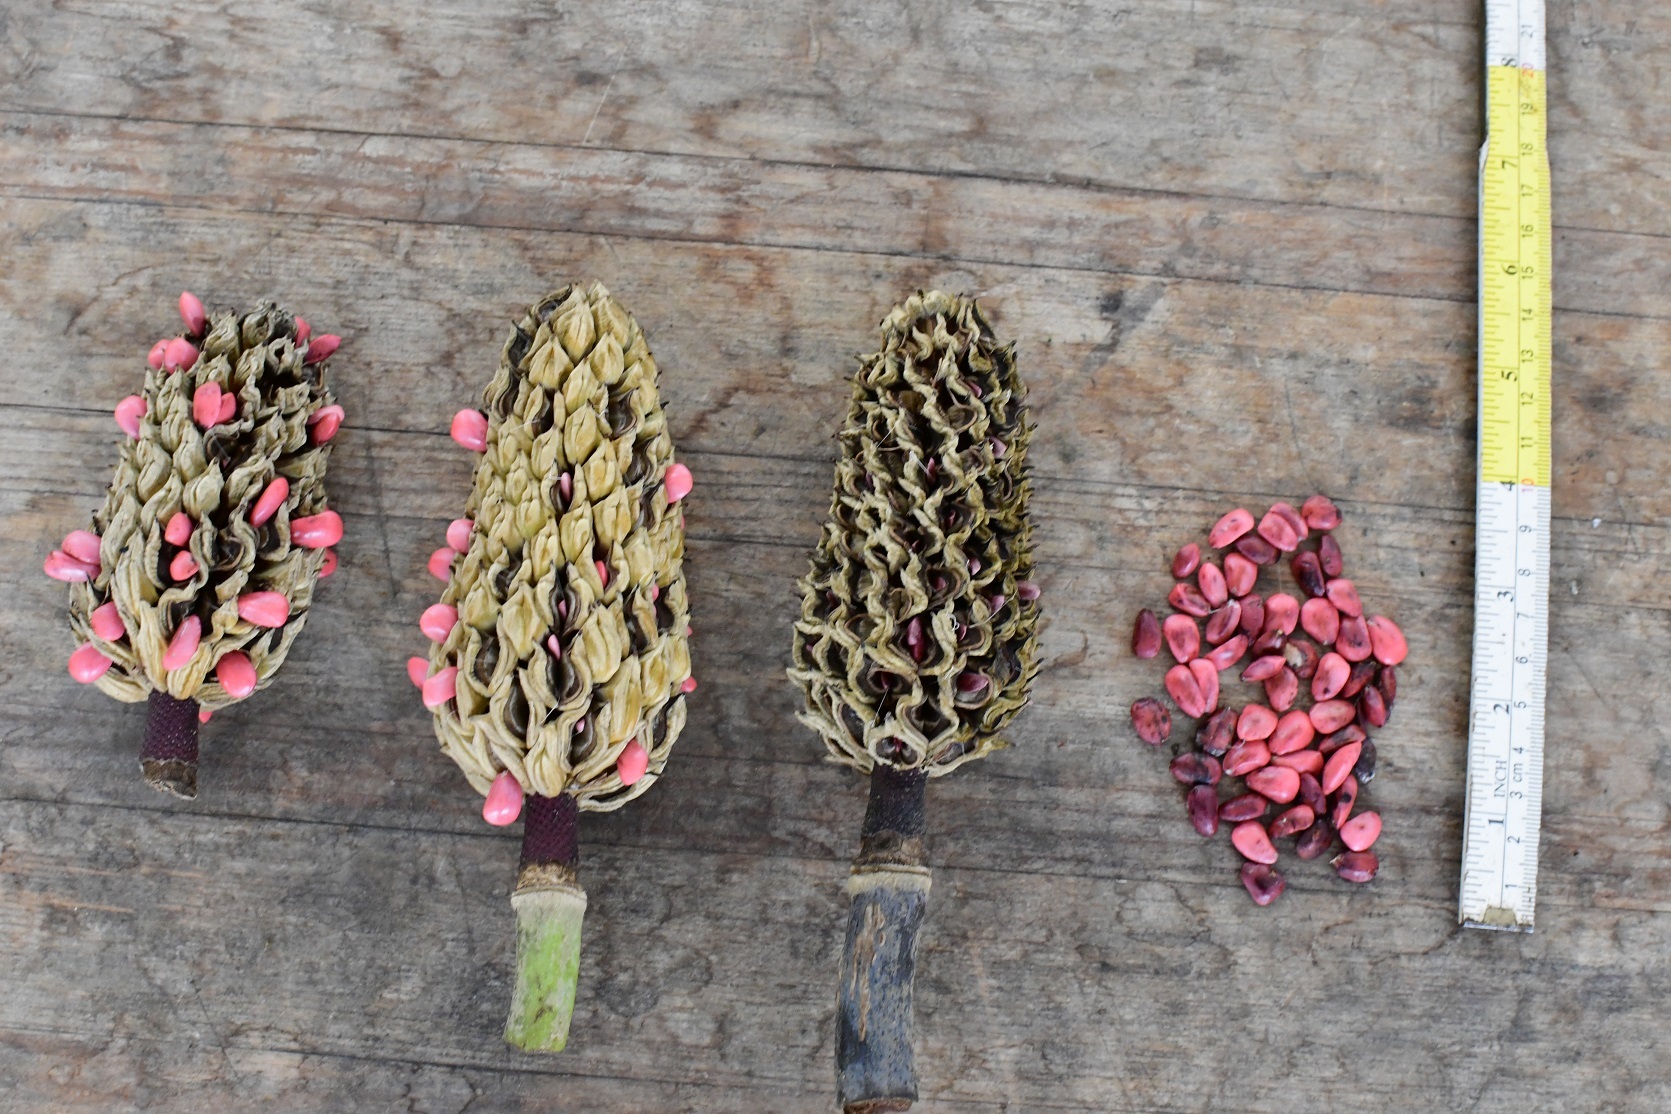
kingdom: Plantae
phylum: Tracheophyta
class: Magnoliopsida
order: Magnoliales
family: Magnoliaceae
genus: Magnolia
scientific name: Magnolia sharpii
